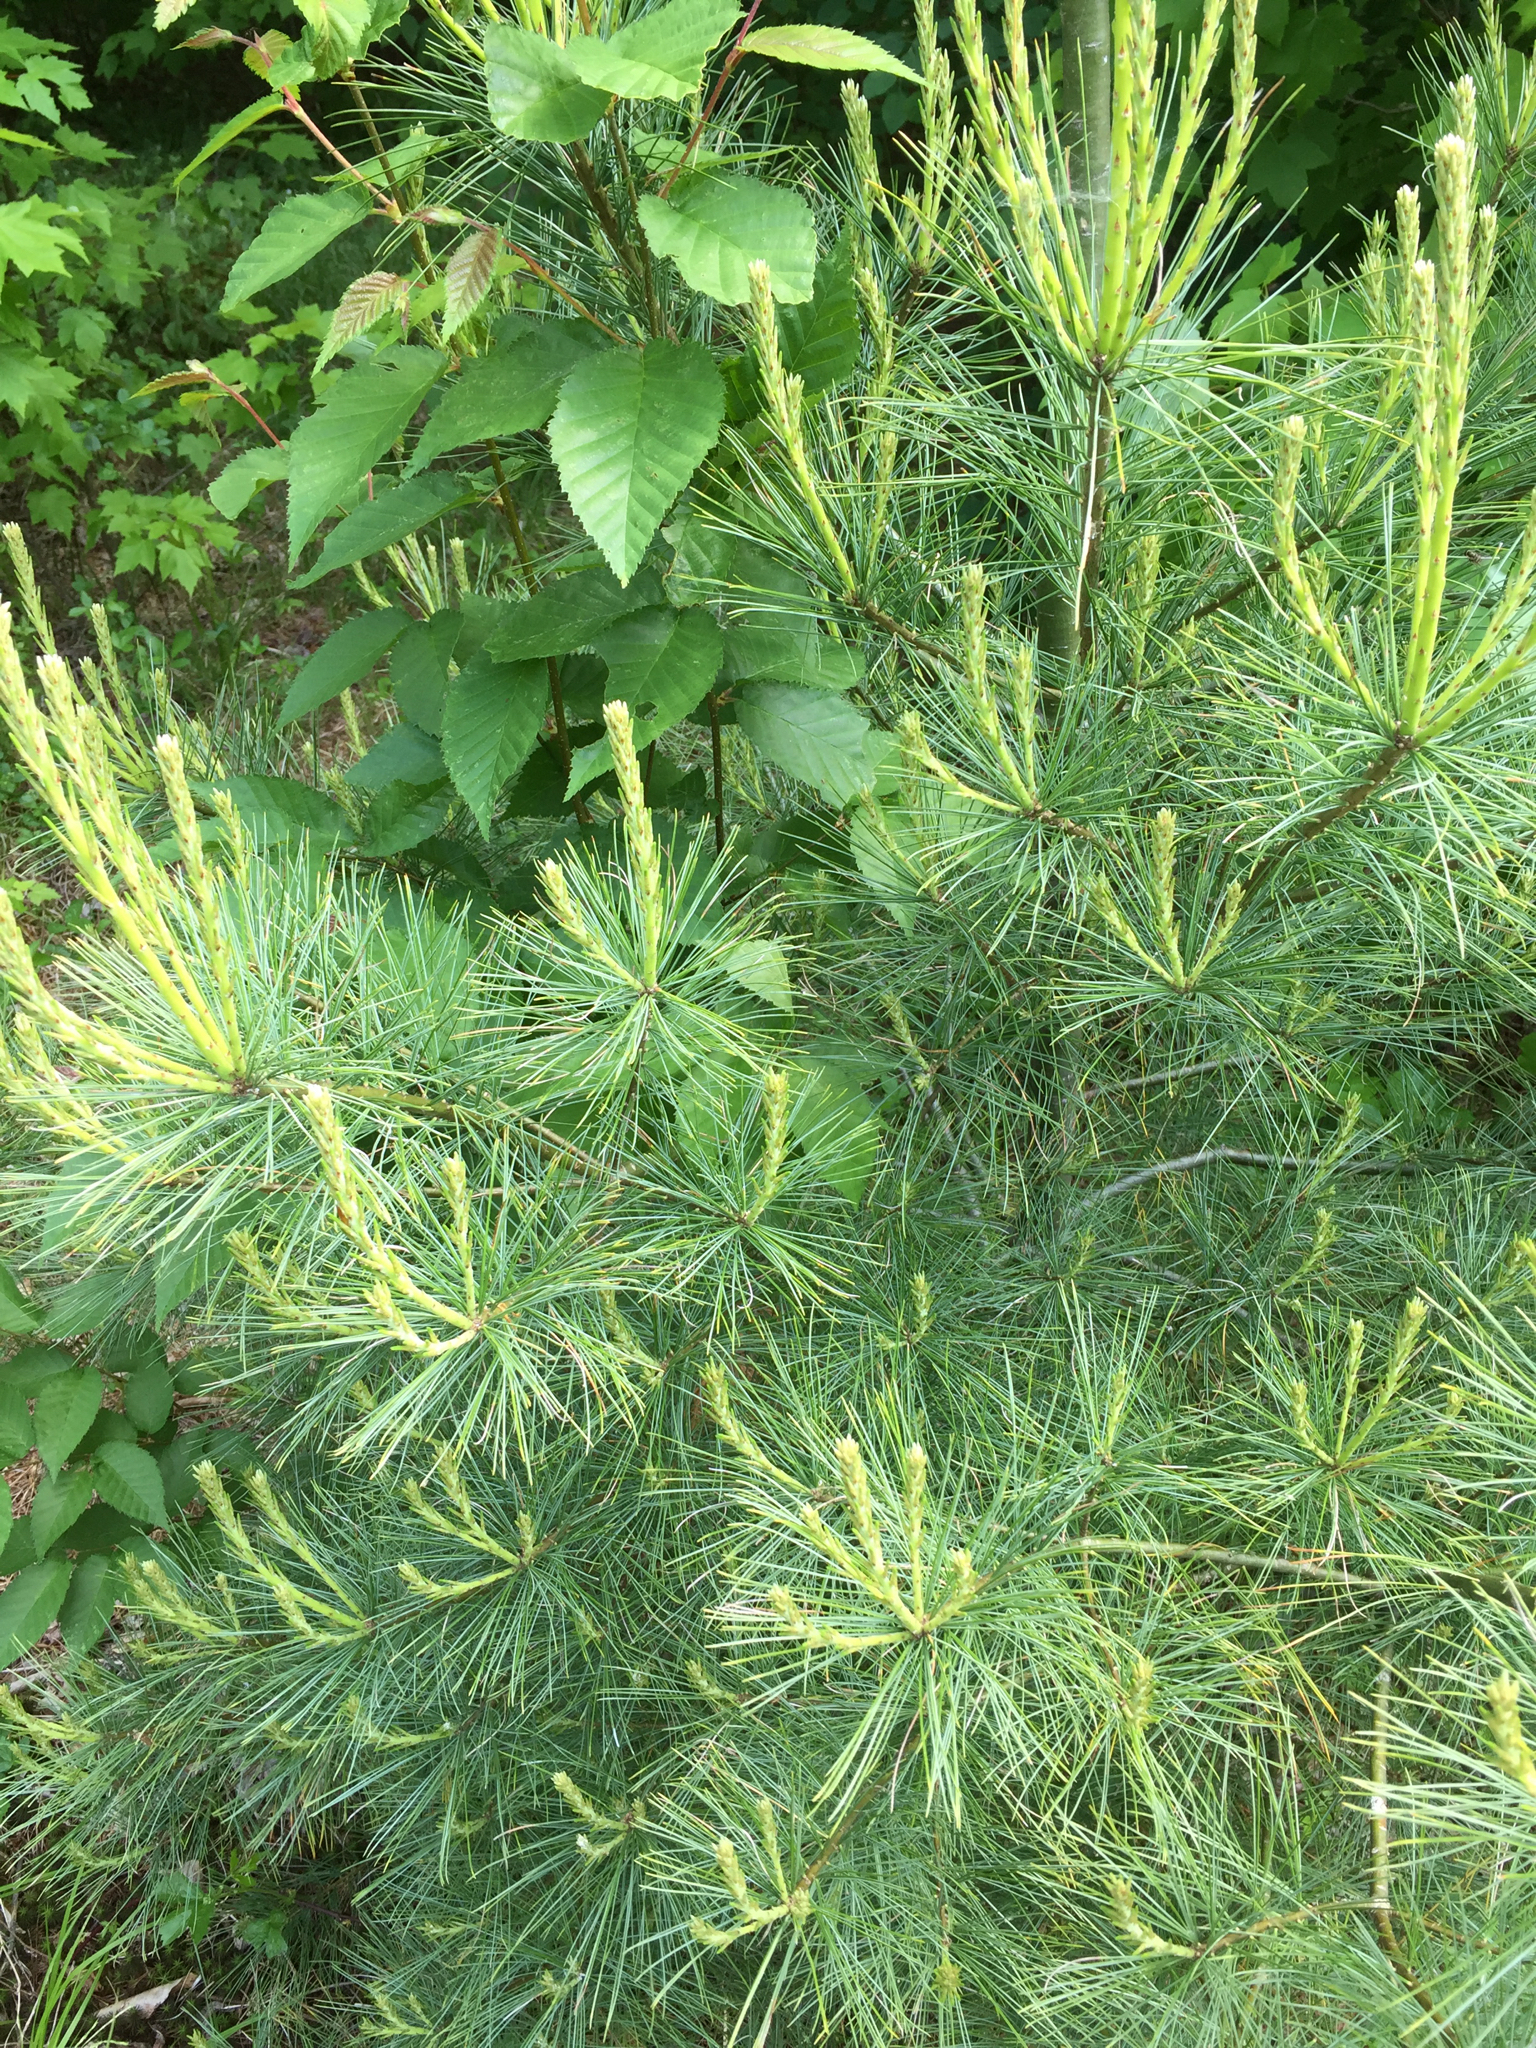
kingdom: Plantae
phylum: Tracheophyta
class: Pinopsida
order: Pinales
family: Pinaceae
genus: Pinus
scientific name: Pinus strobus
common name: Weymouth pine
